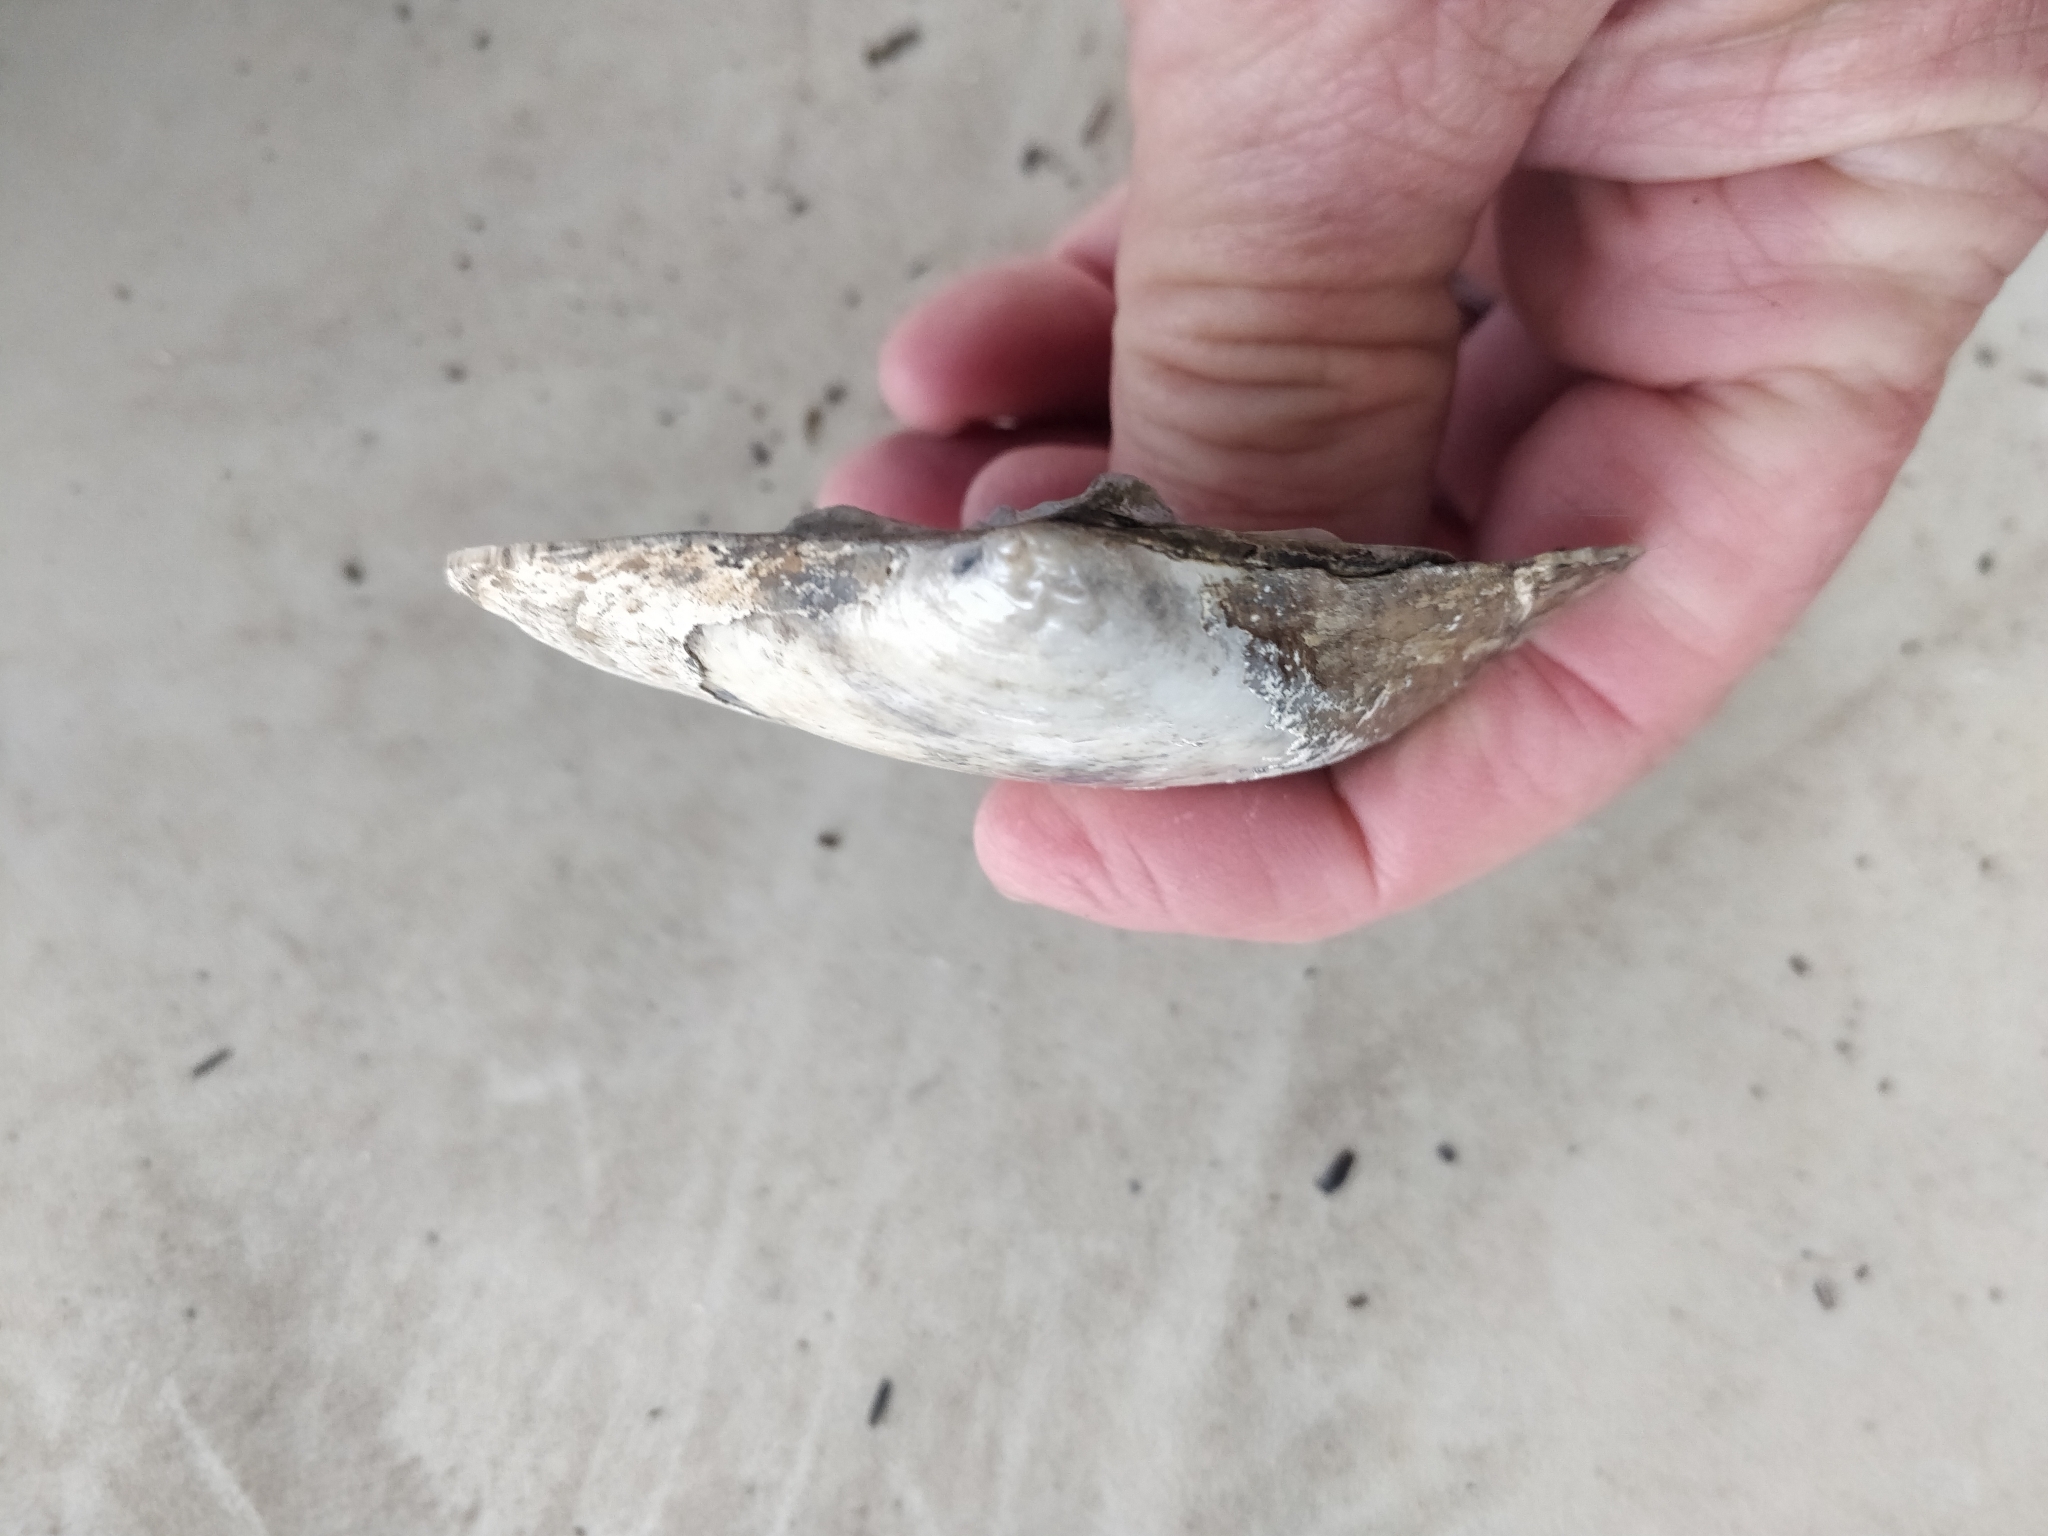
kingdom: Animalia
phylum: Mollusca
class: Bivalvia
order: Unionida
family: Unionidae
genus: Lasmigona
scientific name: Lasmigona complanata
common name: White heelsplitter
